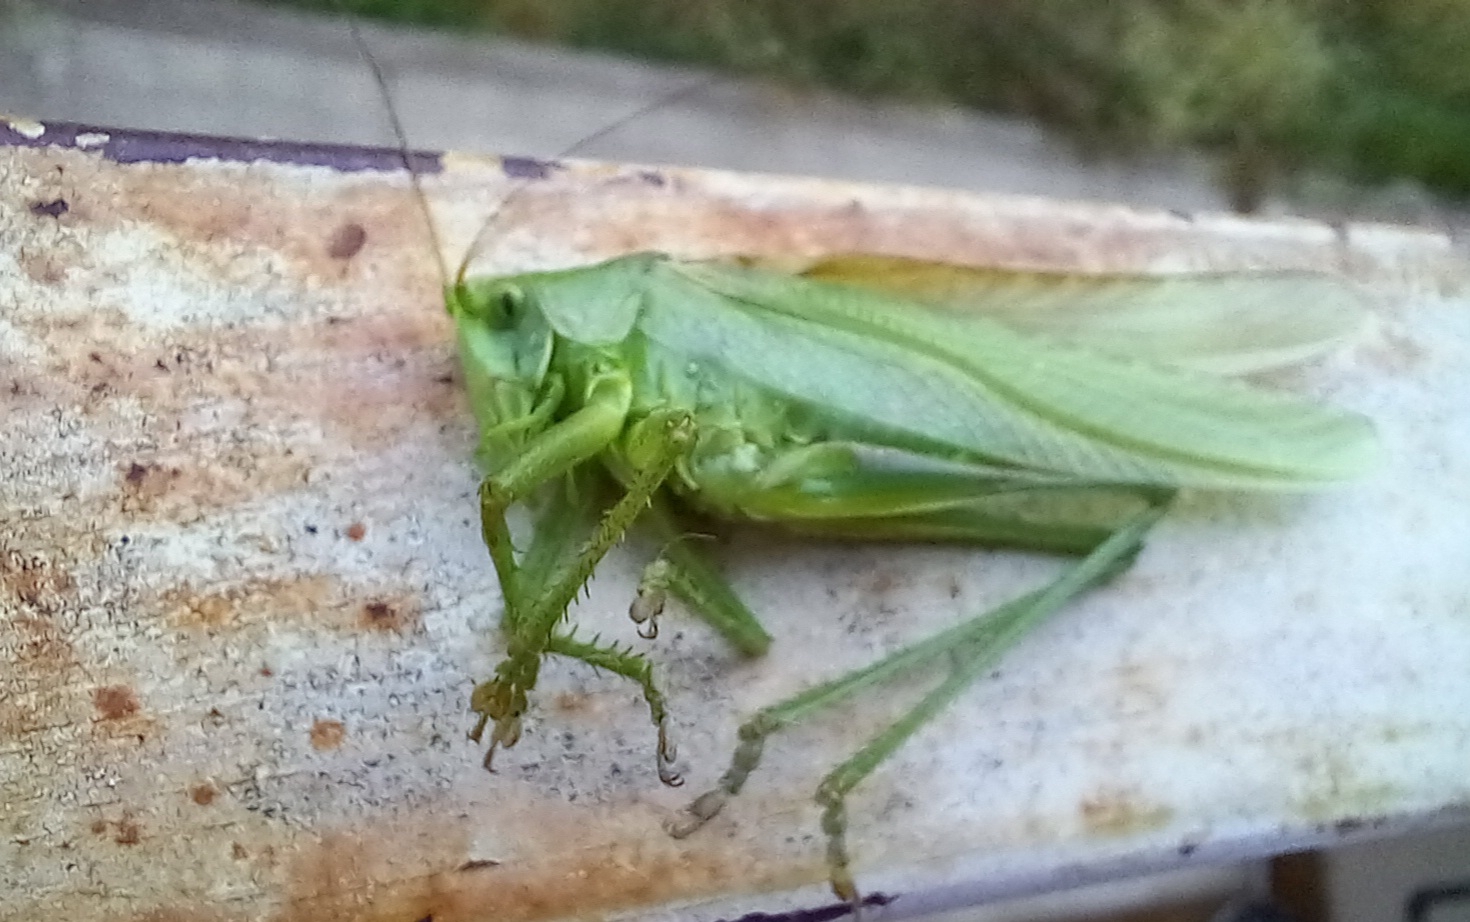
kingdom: Animalia
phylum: Arthropoda
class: Insecta
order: Orthoptera
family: Tettigoniidae
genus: Tettigonia
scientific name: Tettigonia viridissima
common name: Great green bush-cricket
